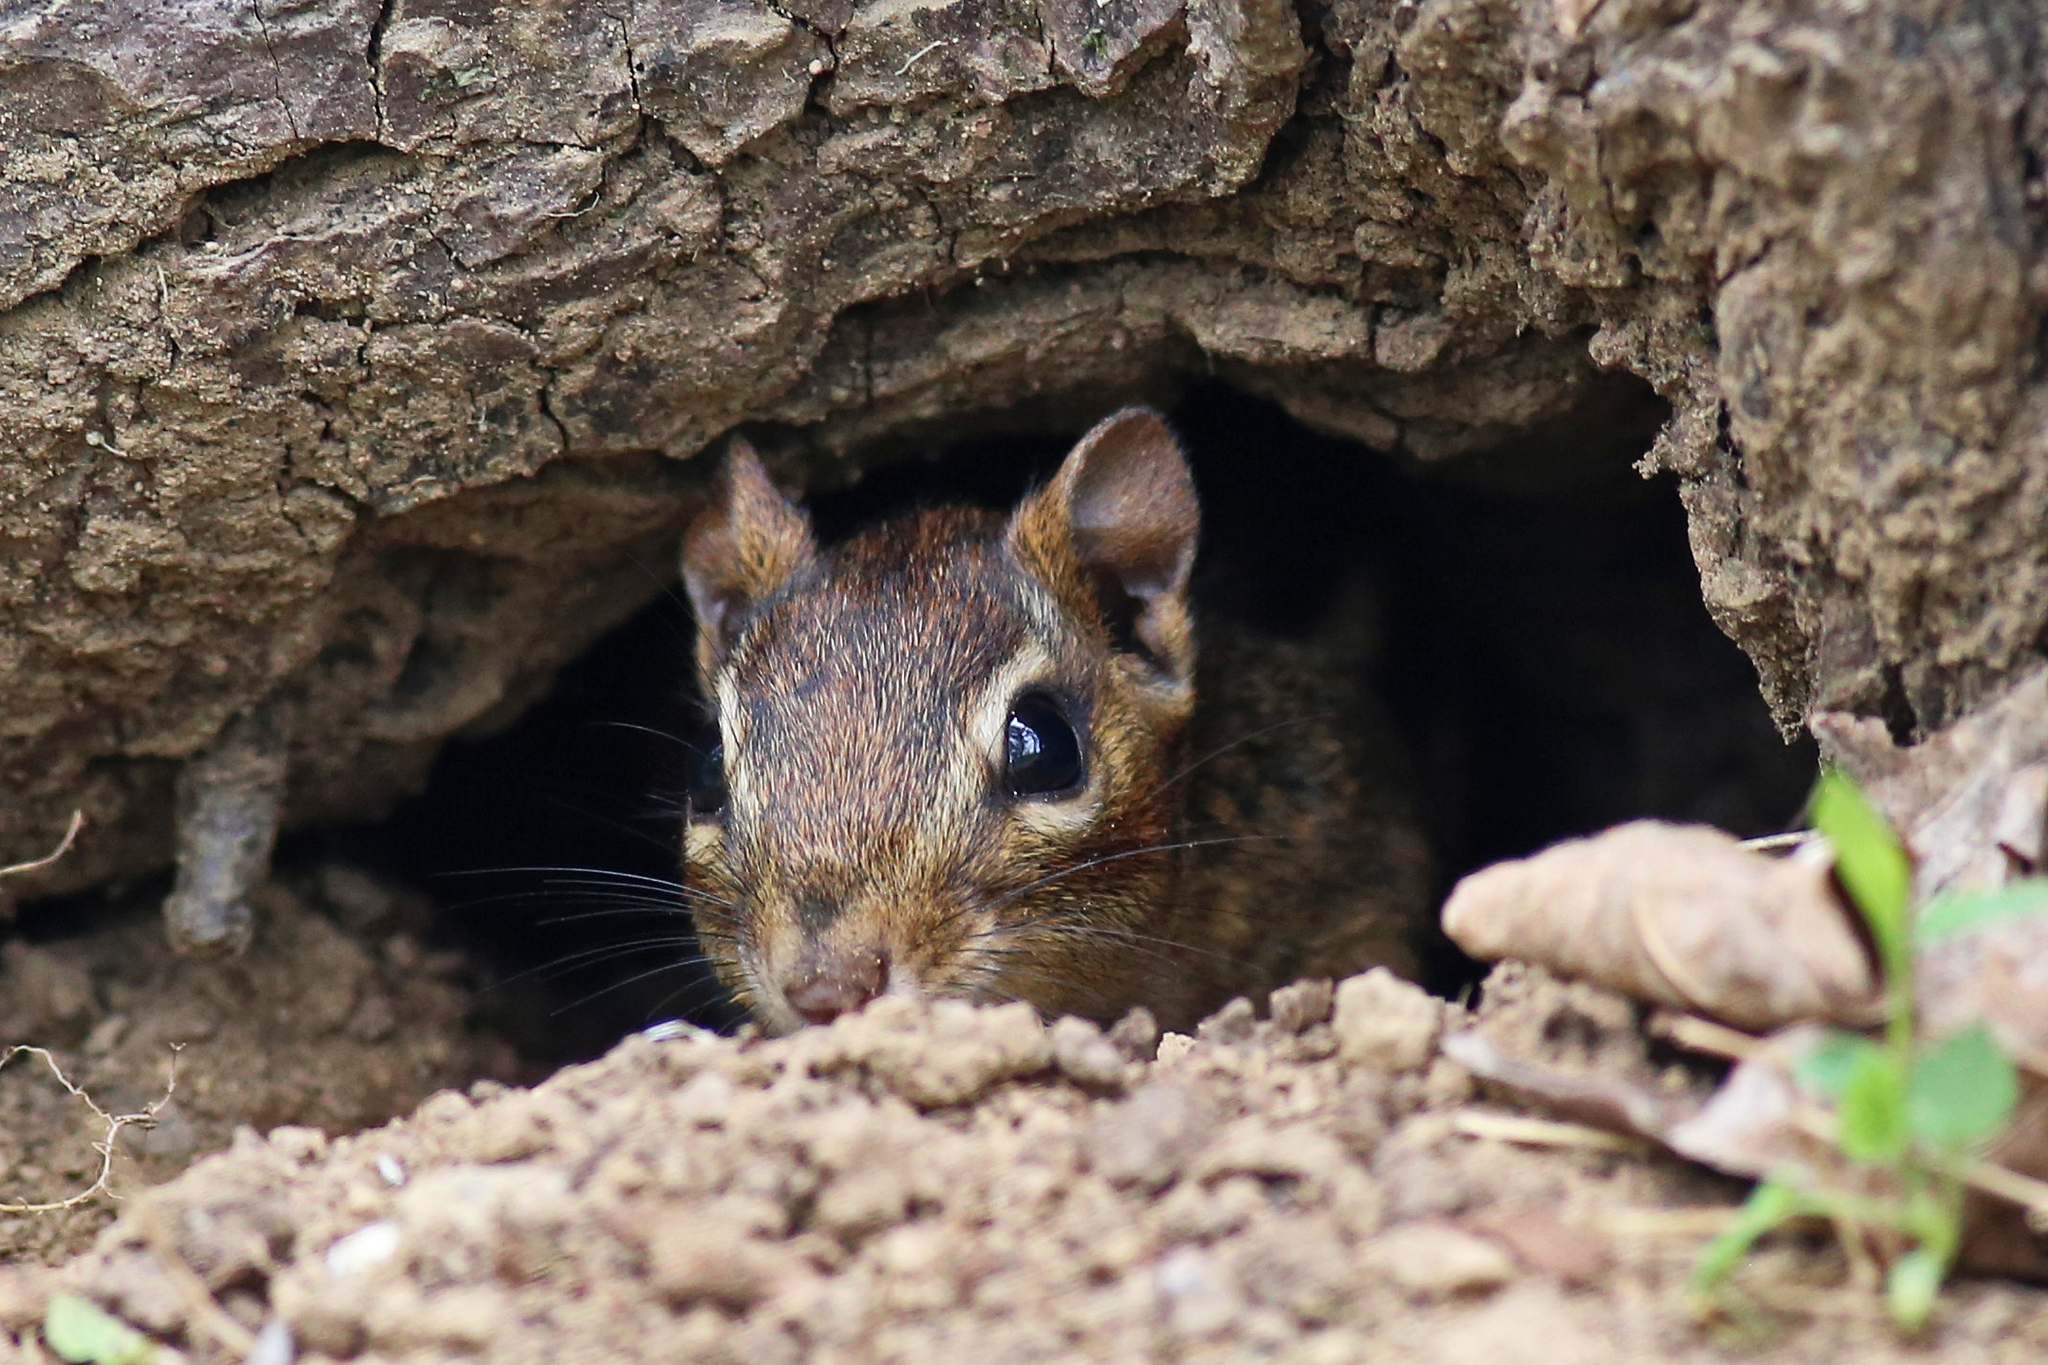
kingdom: Animalia
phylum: Chordata
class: Mammalia
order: Rodentia
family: Sciuridae
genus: Tamias
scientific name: Tamias striatus
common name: Eastern chipmunk
